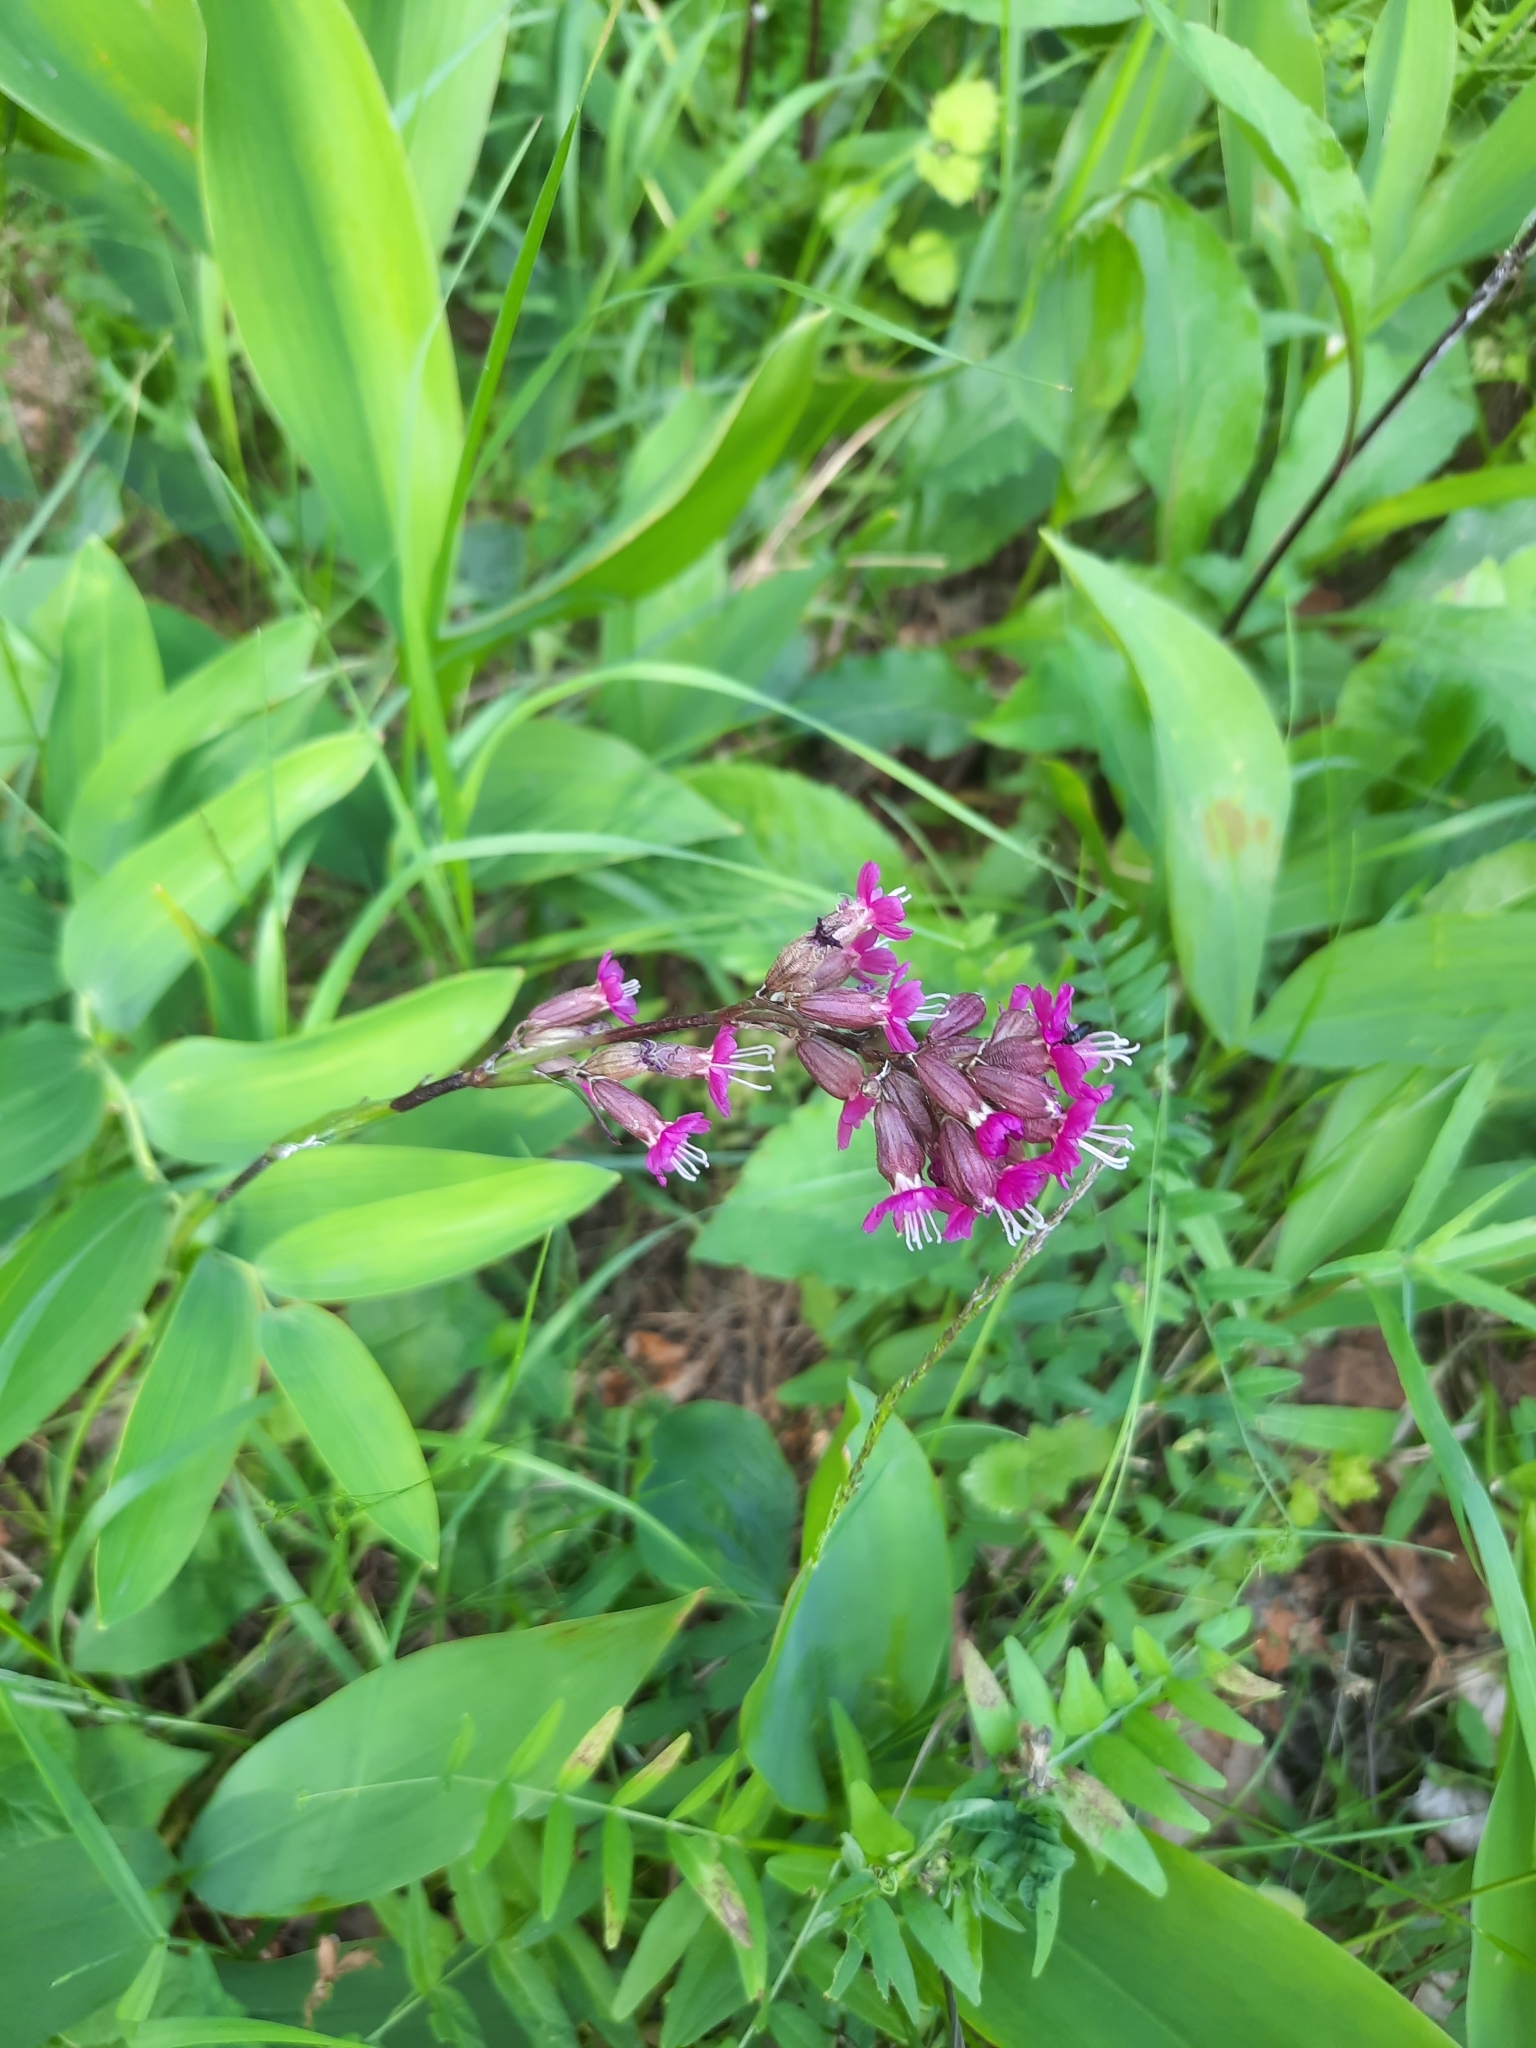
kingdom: Plantae
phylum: Tracheophyta
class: Magnoliopsida
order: Caryophyllales
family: Caryophyllaceae
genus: Viscaria
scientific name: Viscaria vulgaris
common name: Clammy campion
